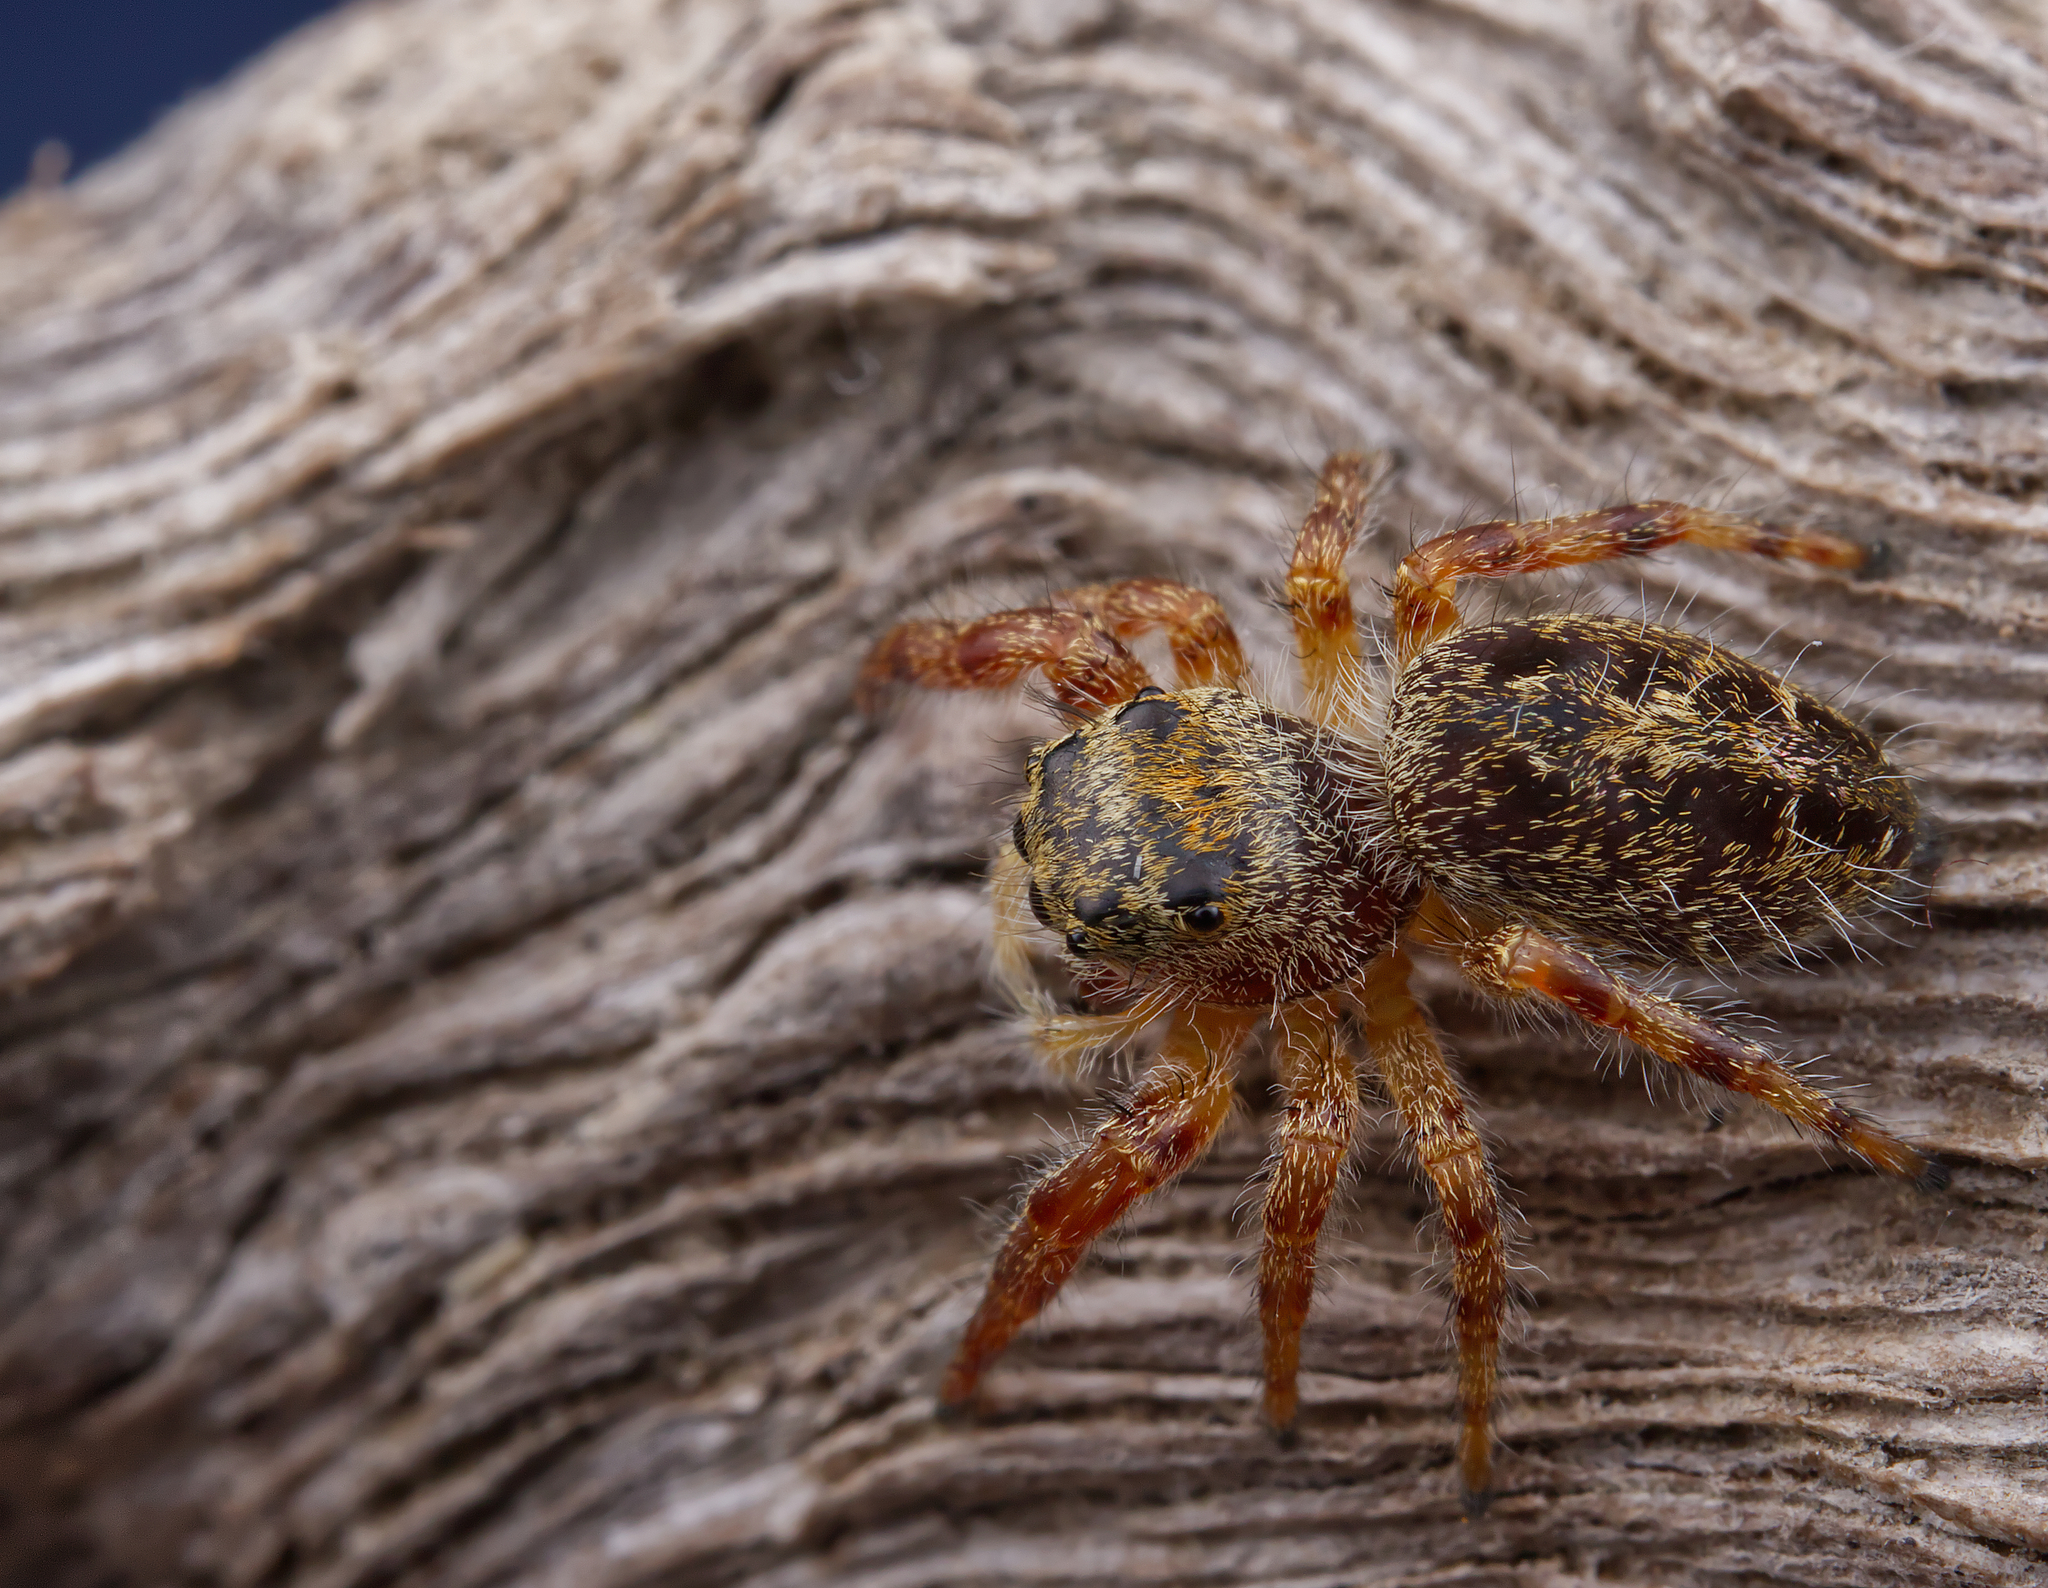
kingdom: Animalia
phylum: Arthropoda
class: Arachnida
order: Araneae
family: Salticidae
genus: Phidippus
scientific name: Phidippus princeps
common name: Grayish jumping spider
